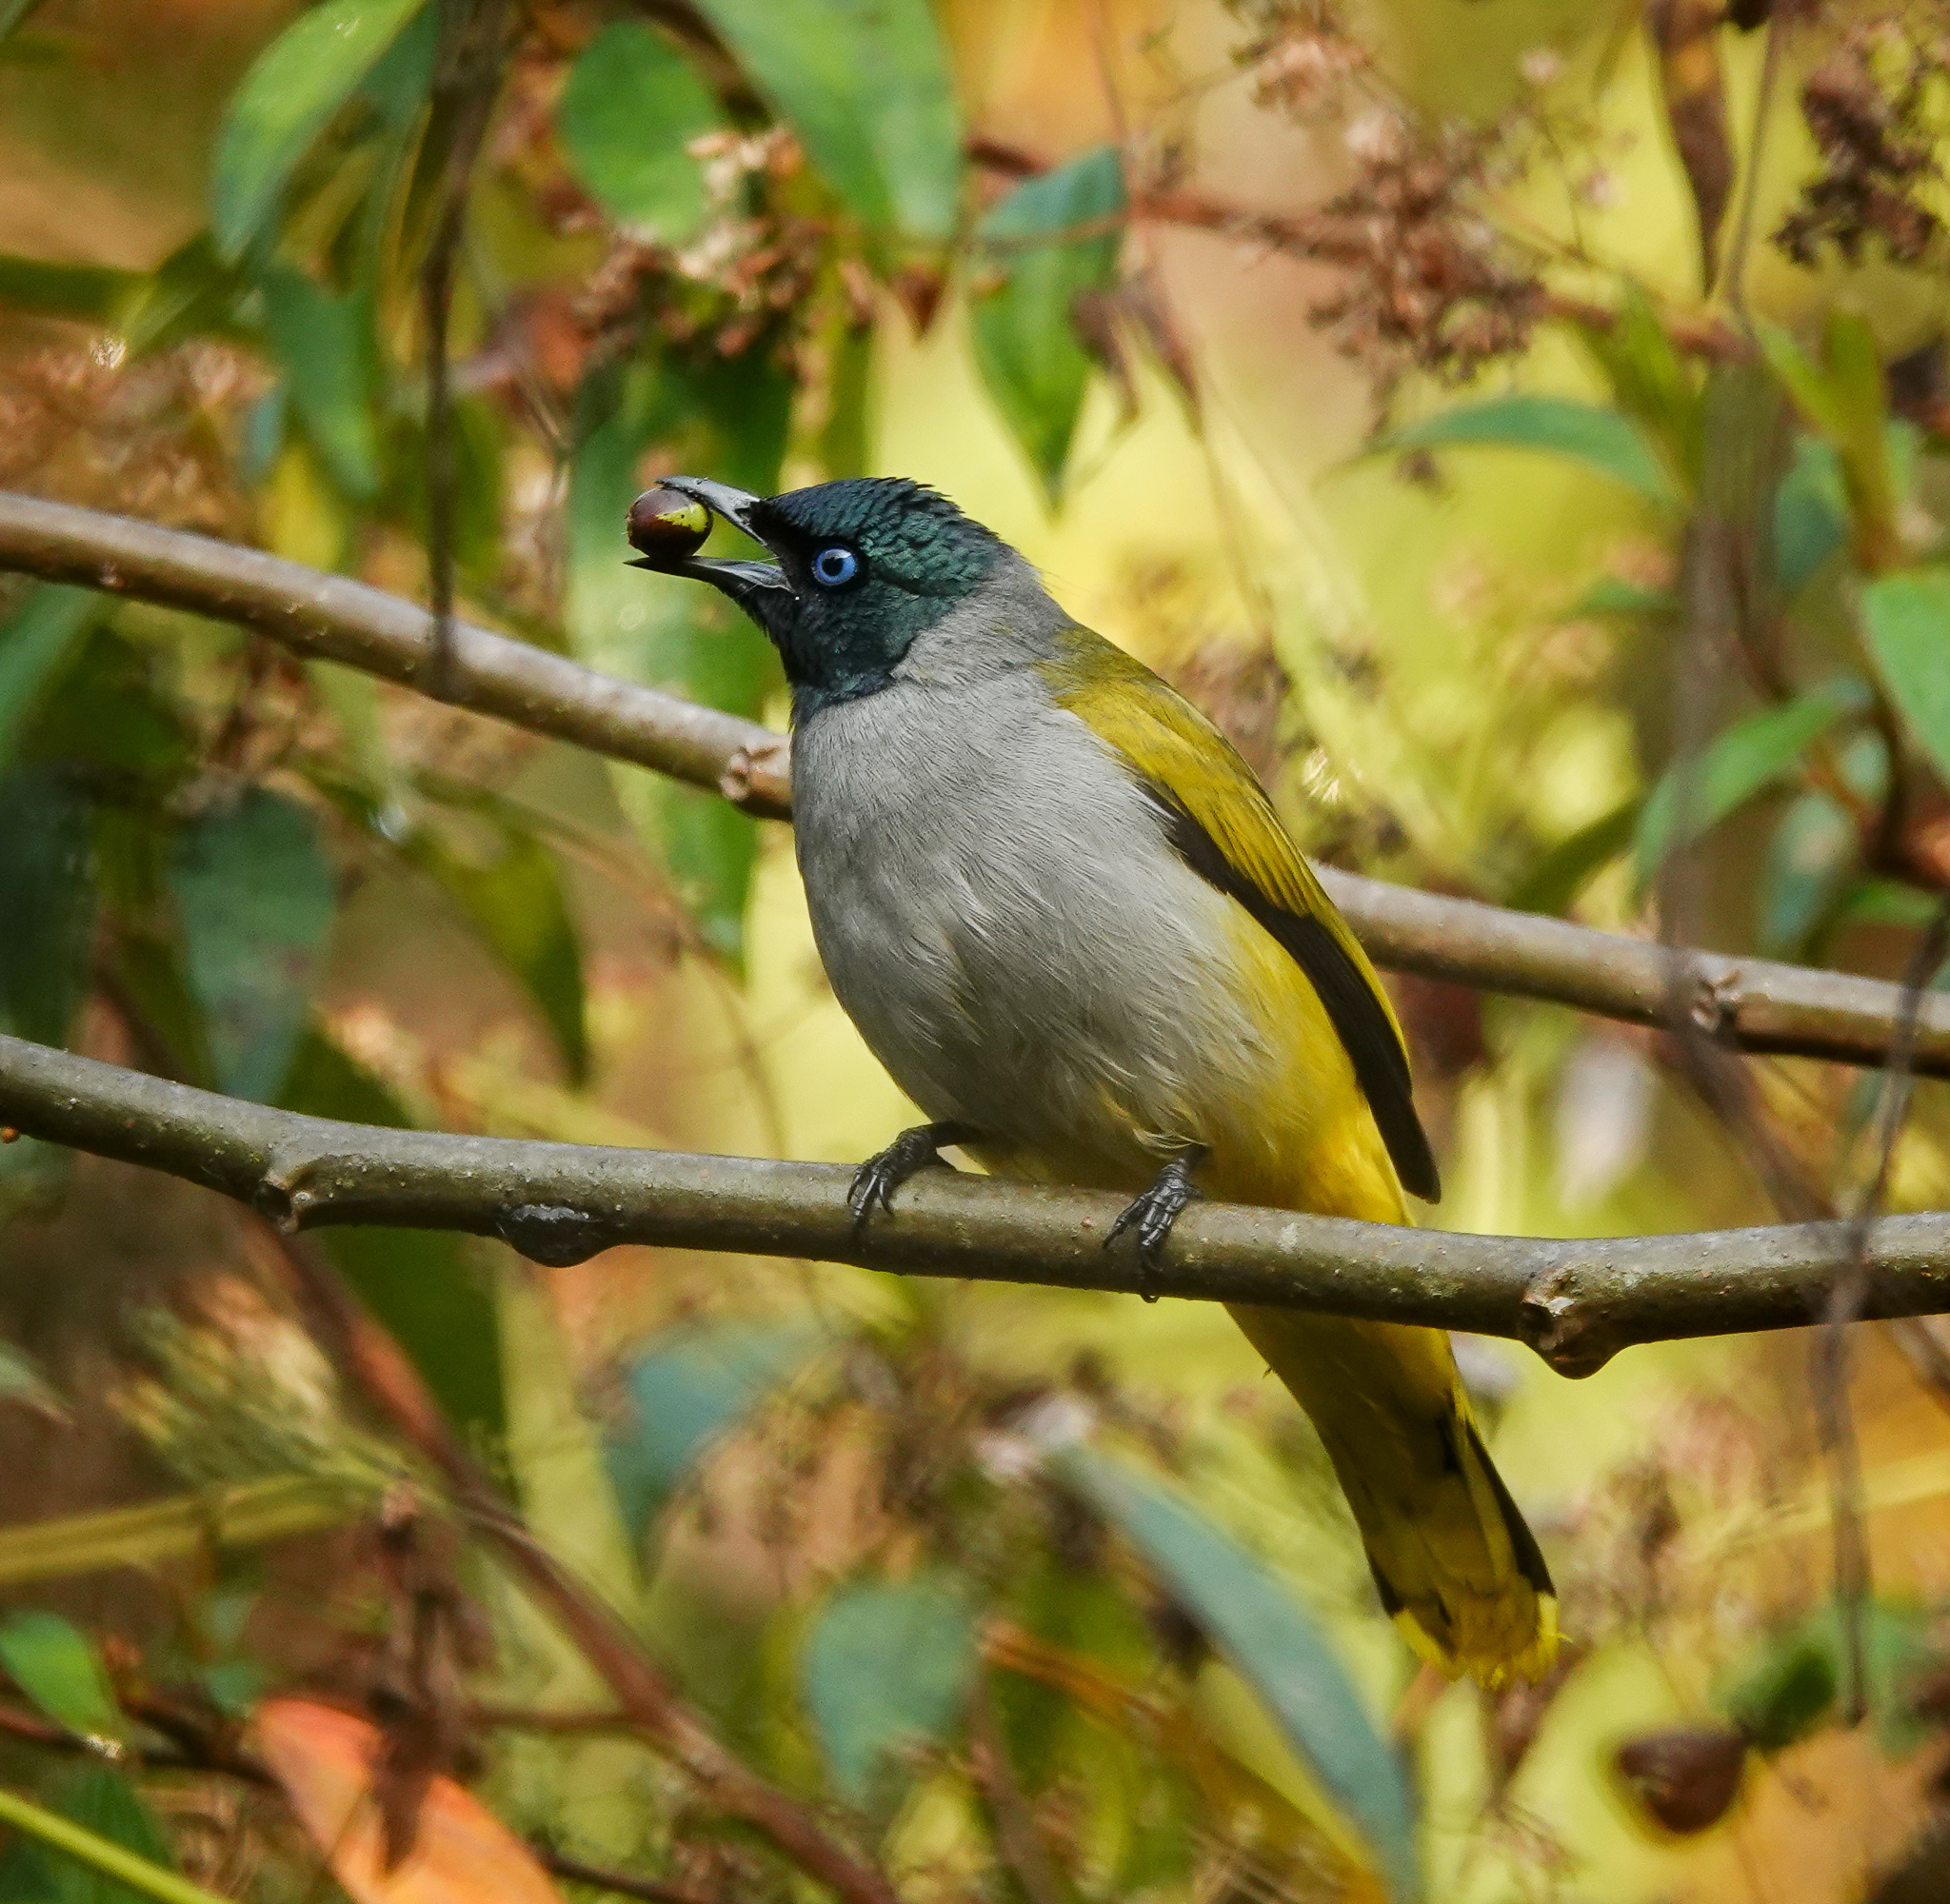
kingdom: Animalia
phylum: Chordata
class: Aves
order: Passeriformes
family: Pycnonotidae
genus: Microtarsus
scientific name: Microtarsus
